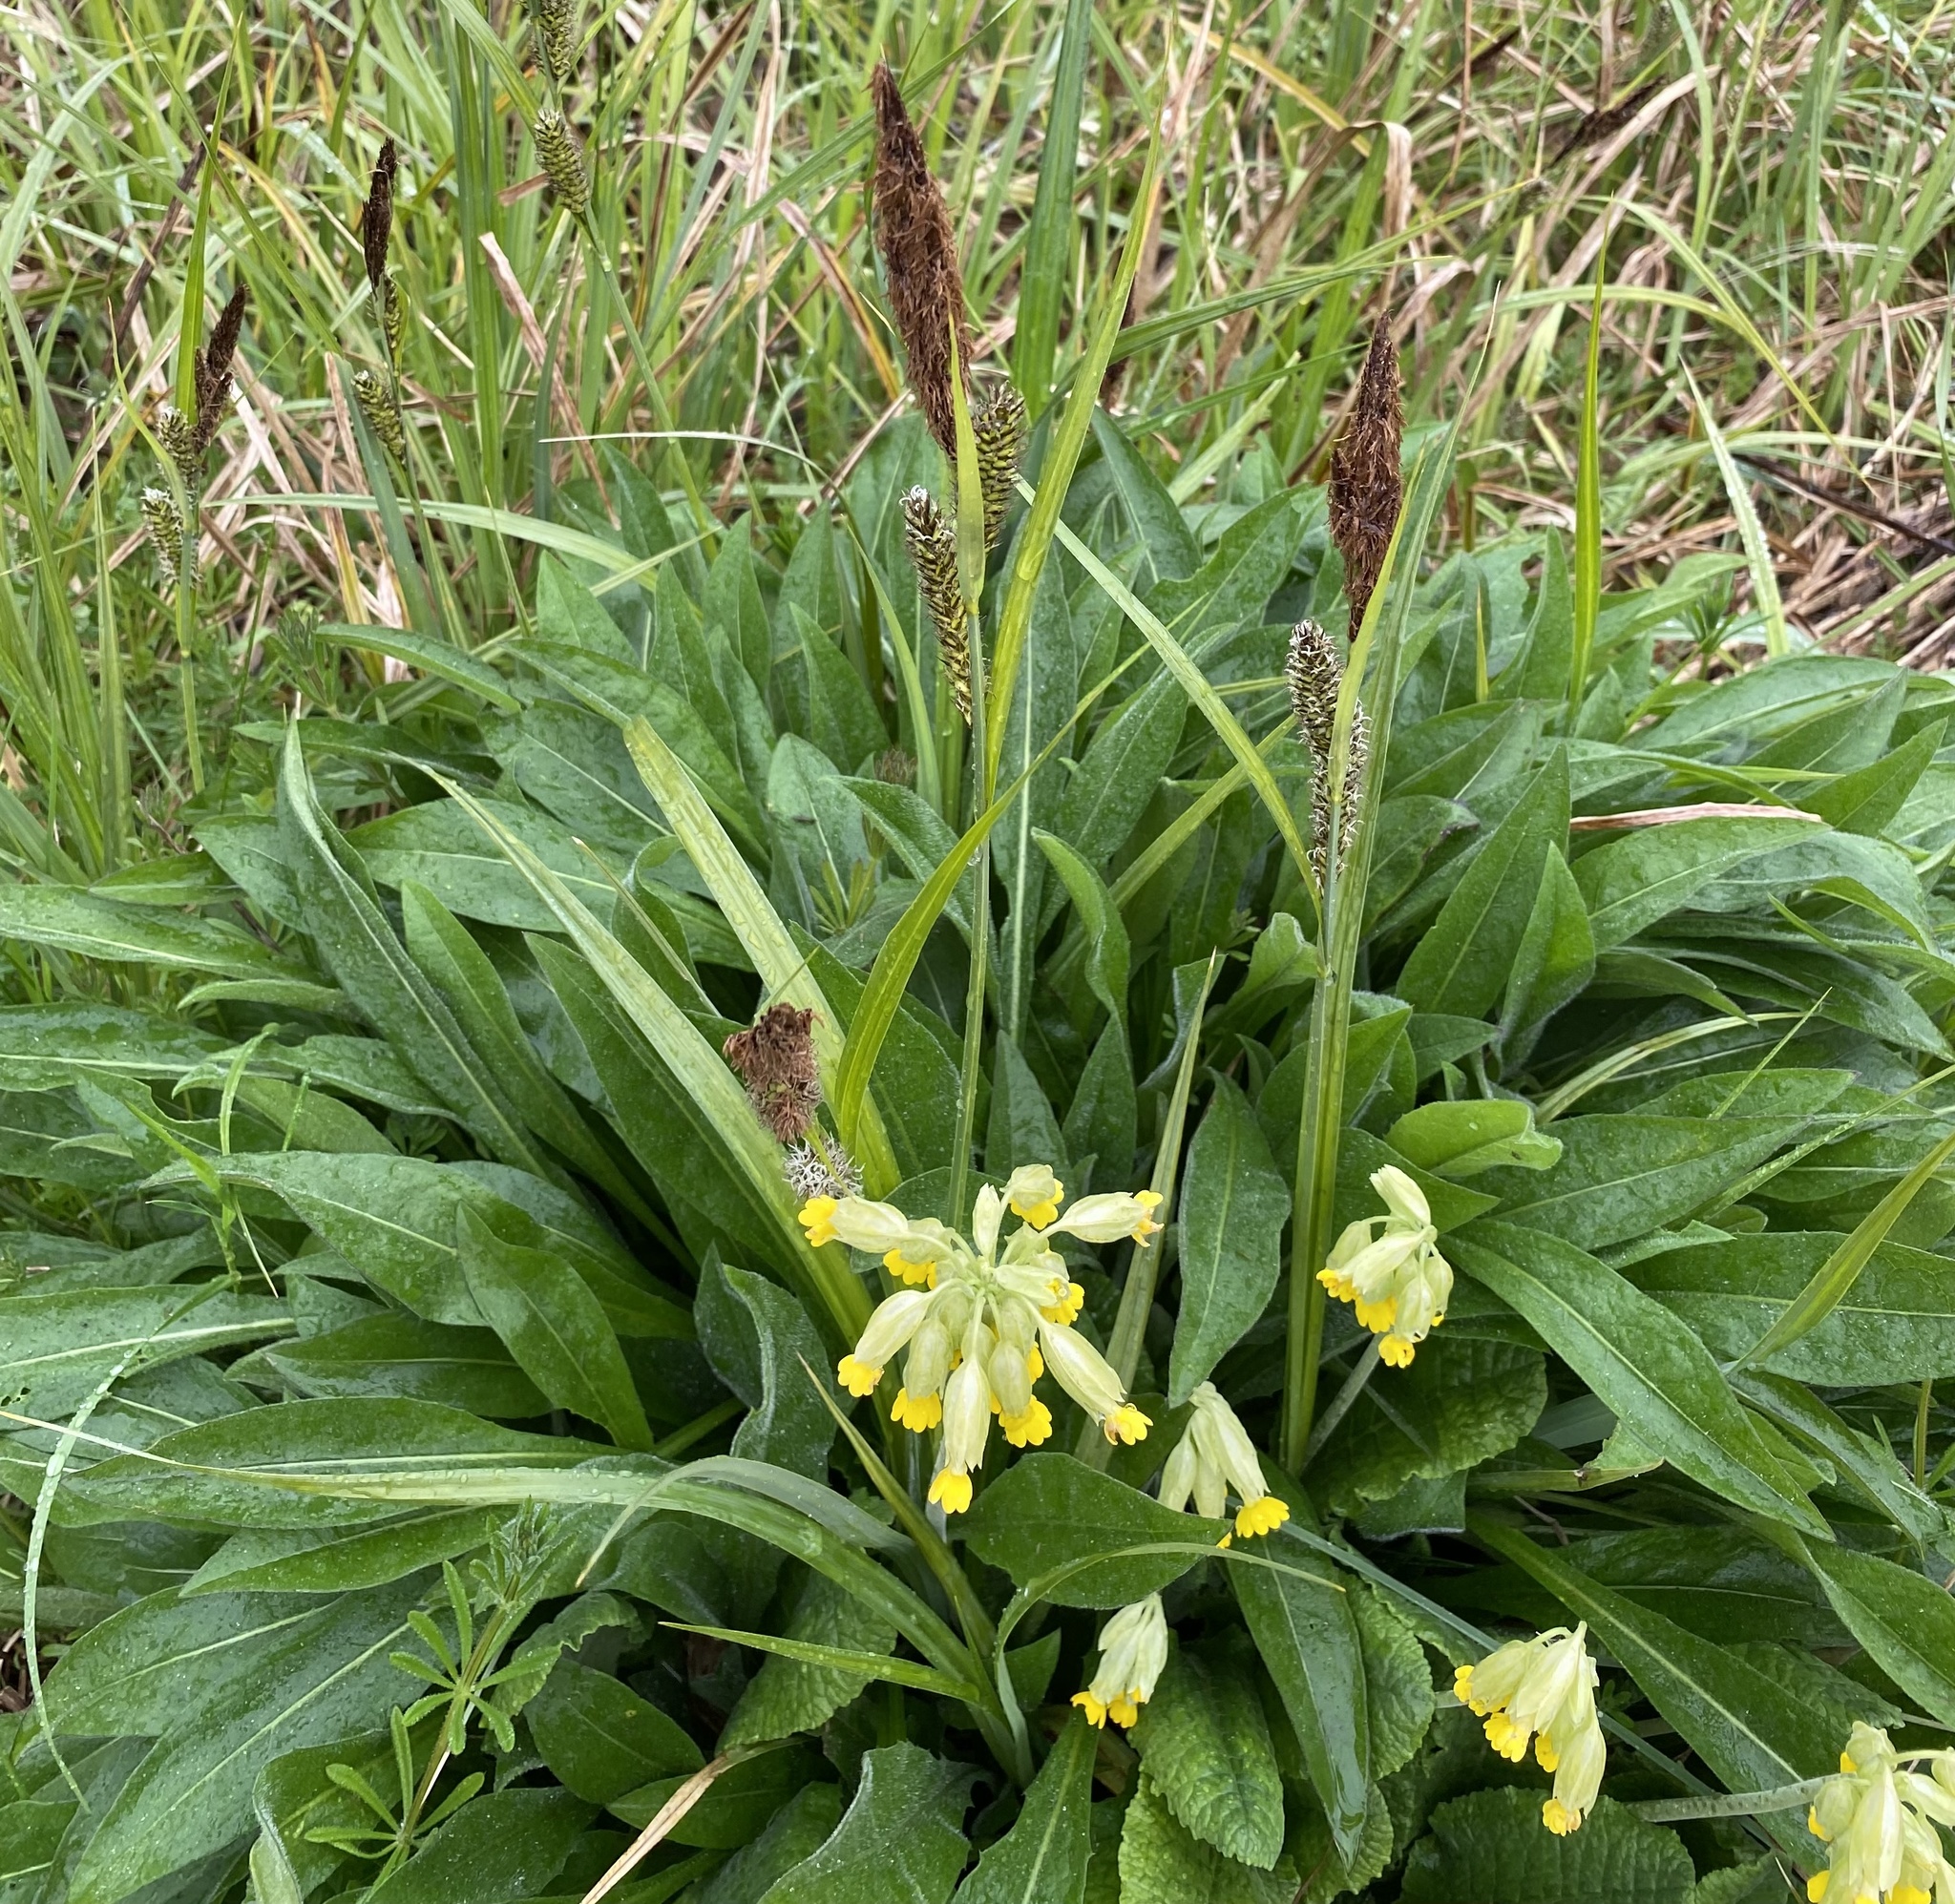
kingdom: Plantae
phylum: Tracheophyta
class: Magnoliopsida
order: Ericales
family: Primulaceae
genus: Primula
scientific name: Primula veris
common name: Cowslip
